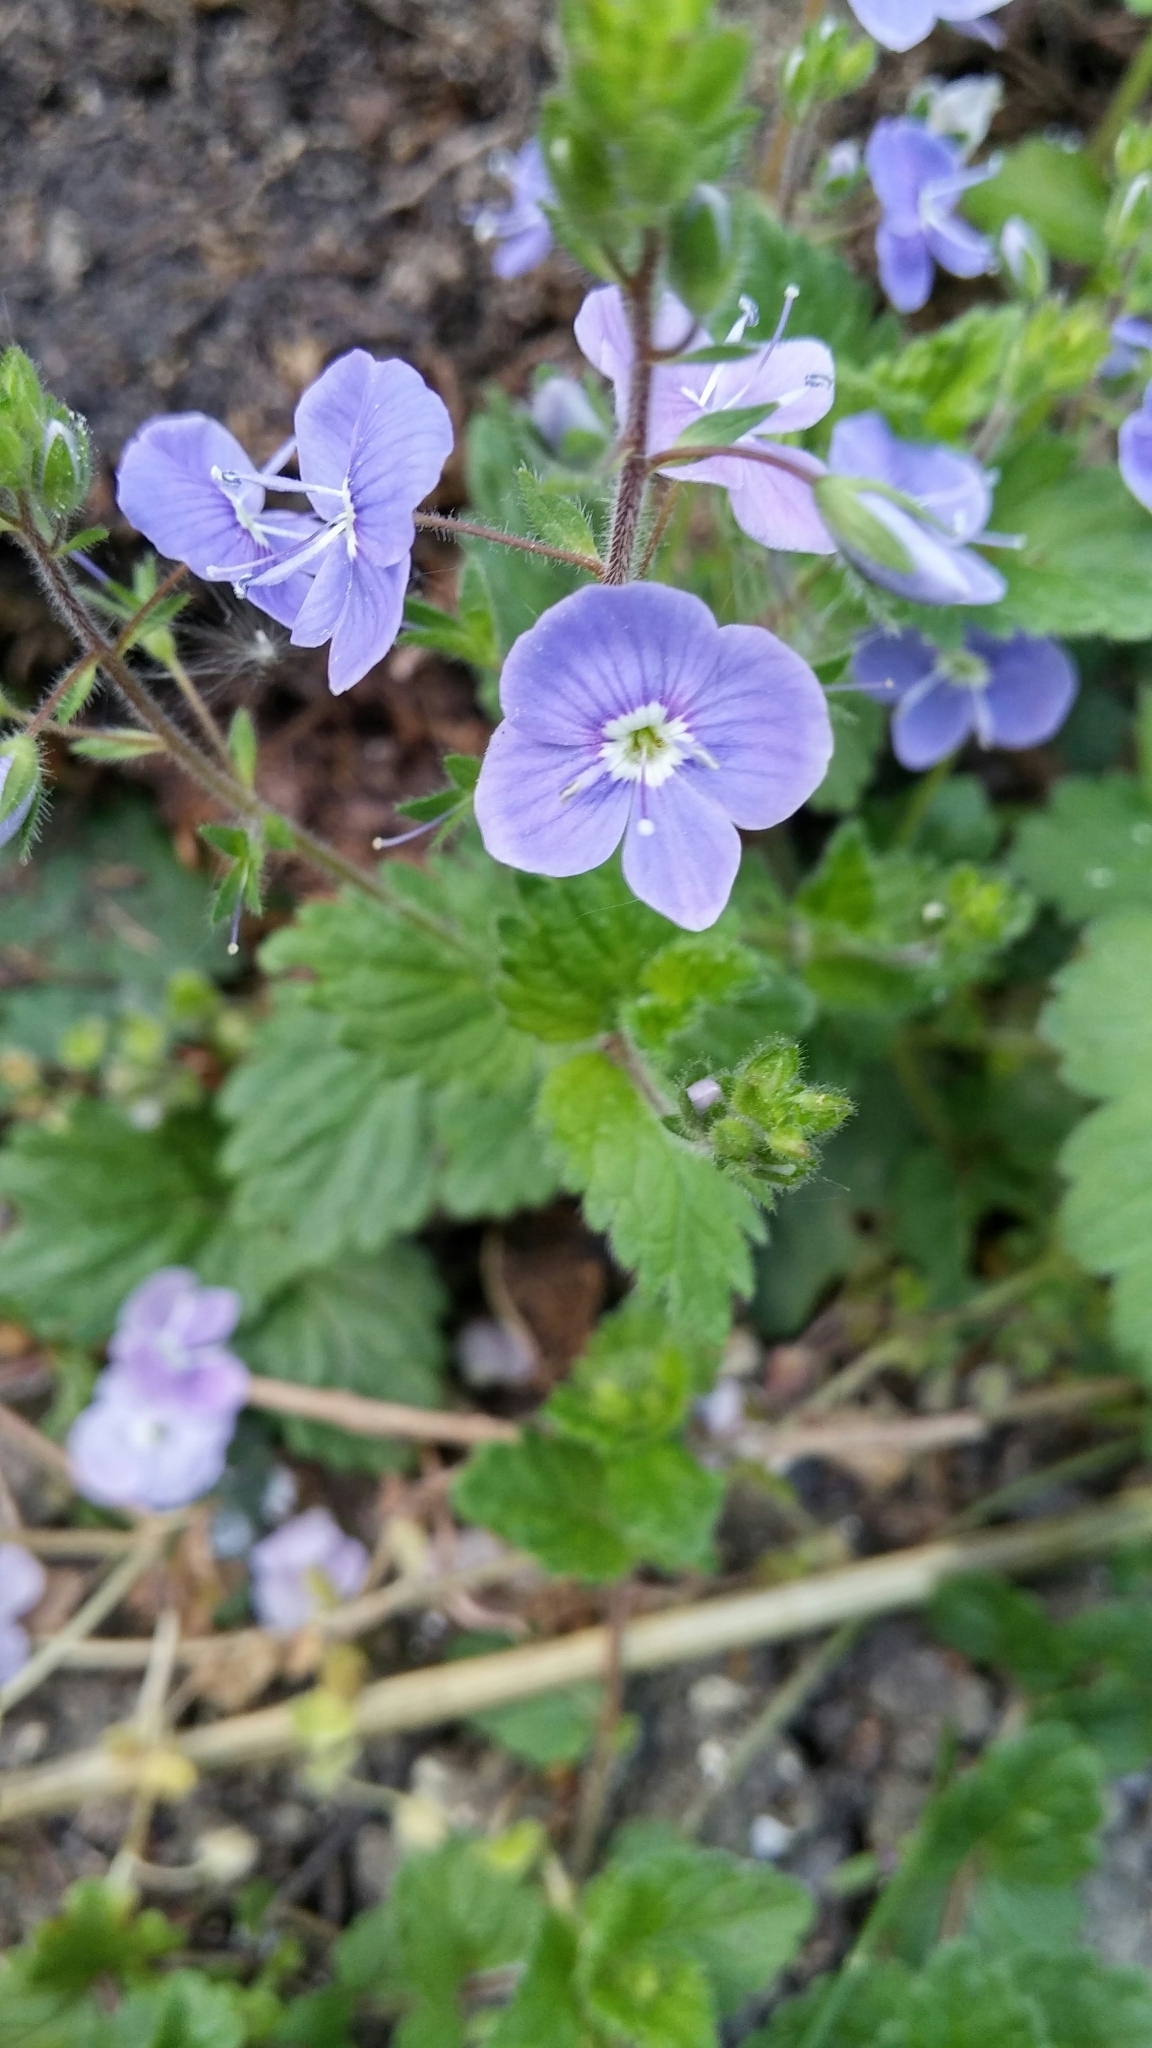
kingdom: Plantae
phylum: Tracheophyta
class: Magnoliopsida
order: Lamiales
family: Plantaginaceae
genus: Veronica
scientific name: Veronica chamaedrys
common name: Germander speedwell
